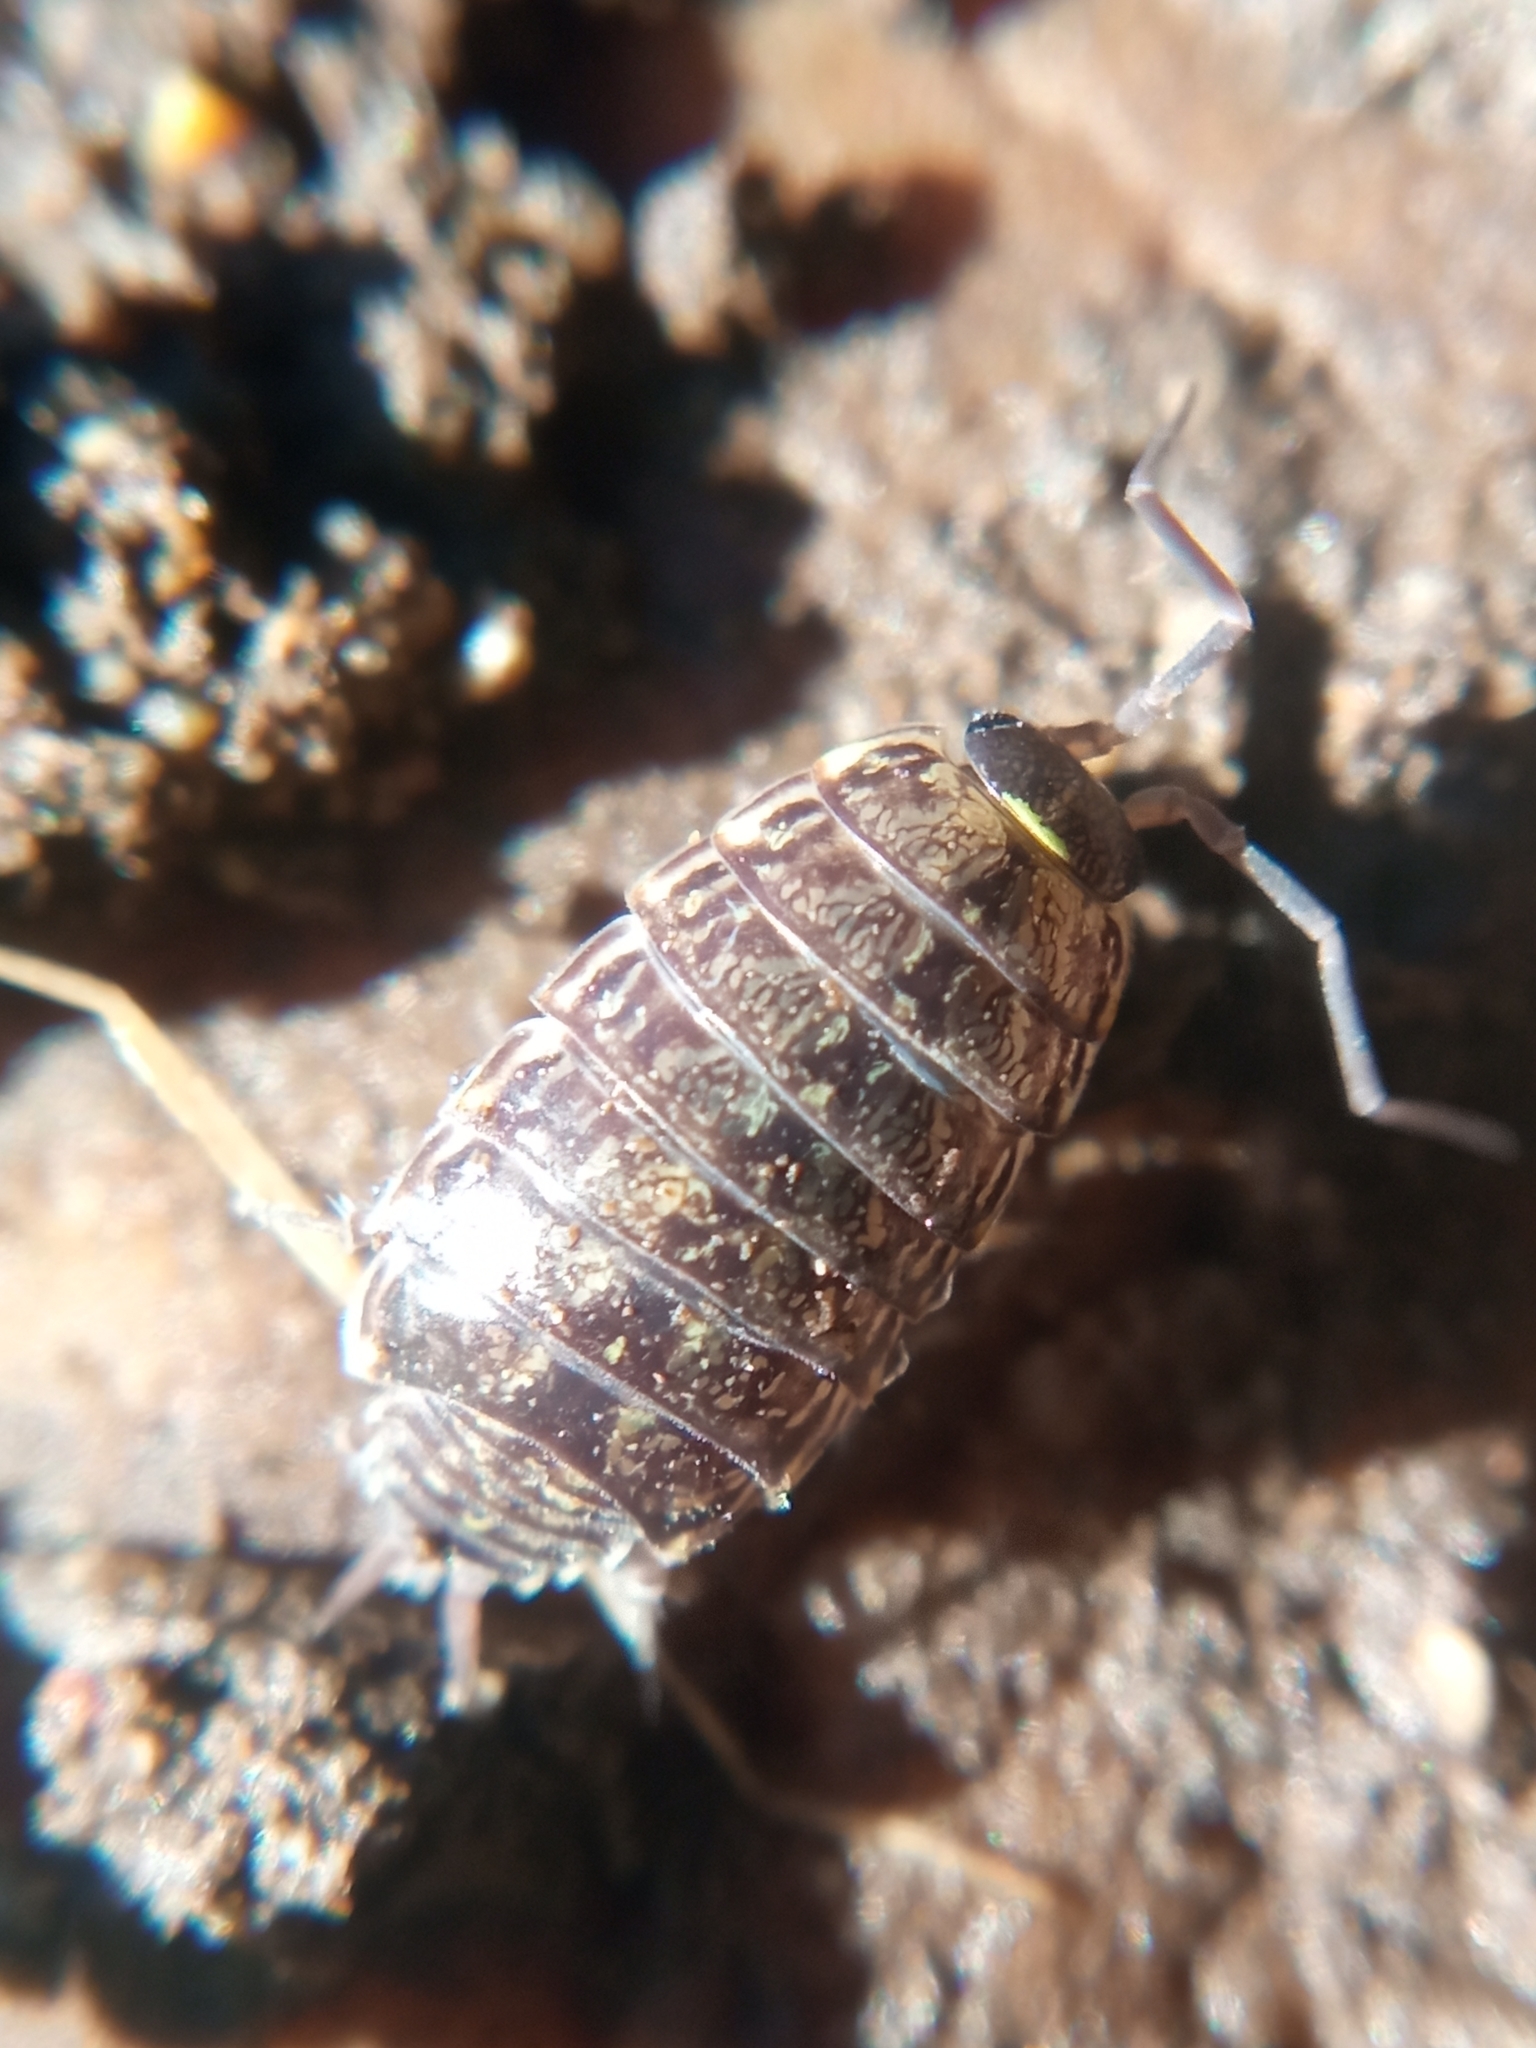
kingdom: Animalia
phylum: Arthropoda
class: Malacostraca
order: Isopoda
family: Philosciidae
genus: Philoscia
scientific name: Philoscia muscorum
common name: Common striped woodlouse
